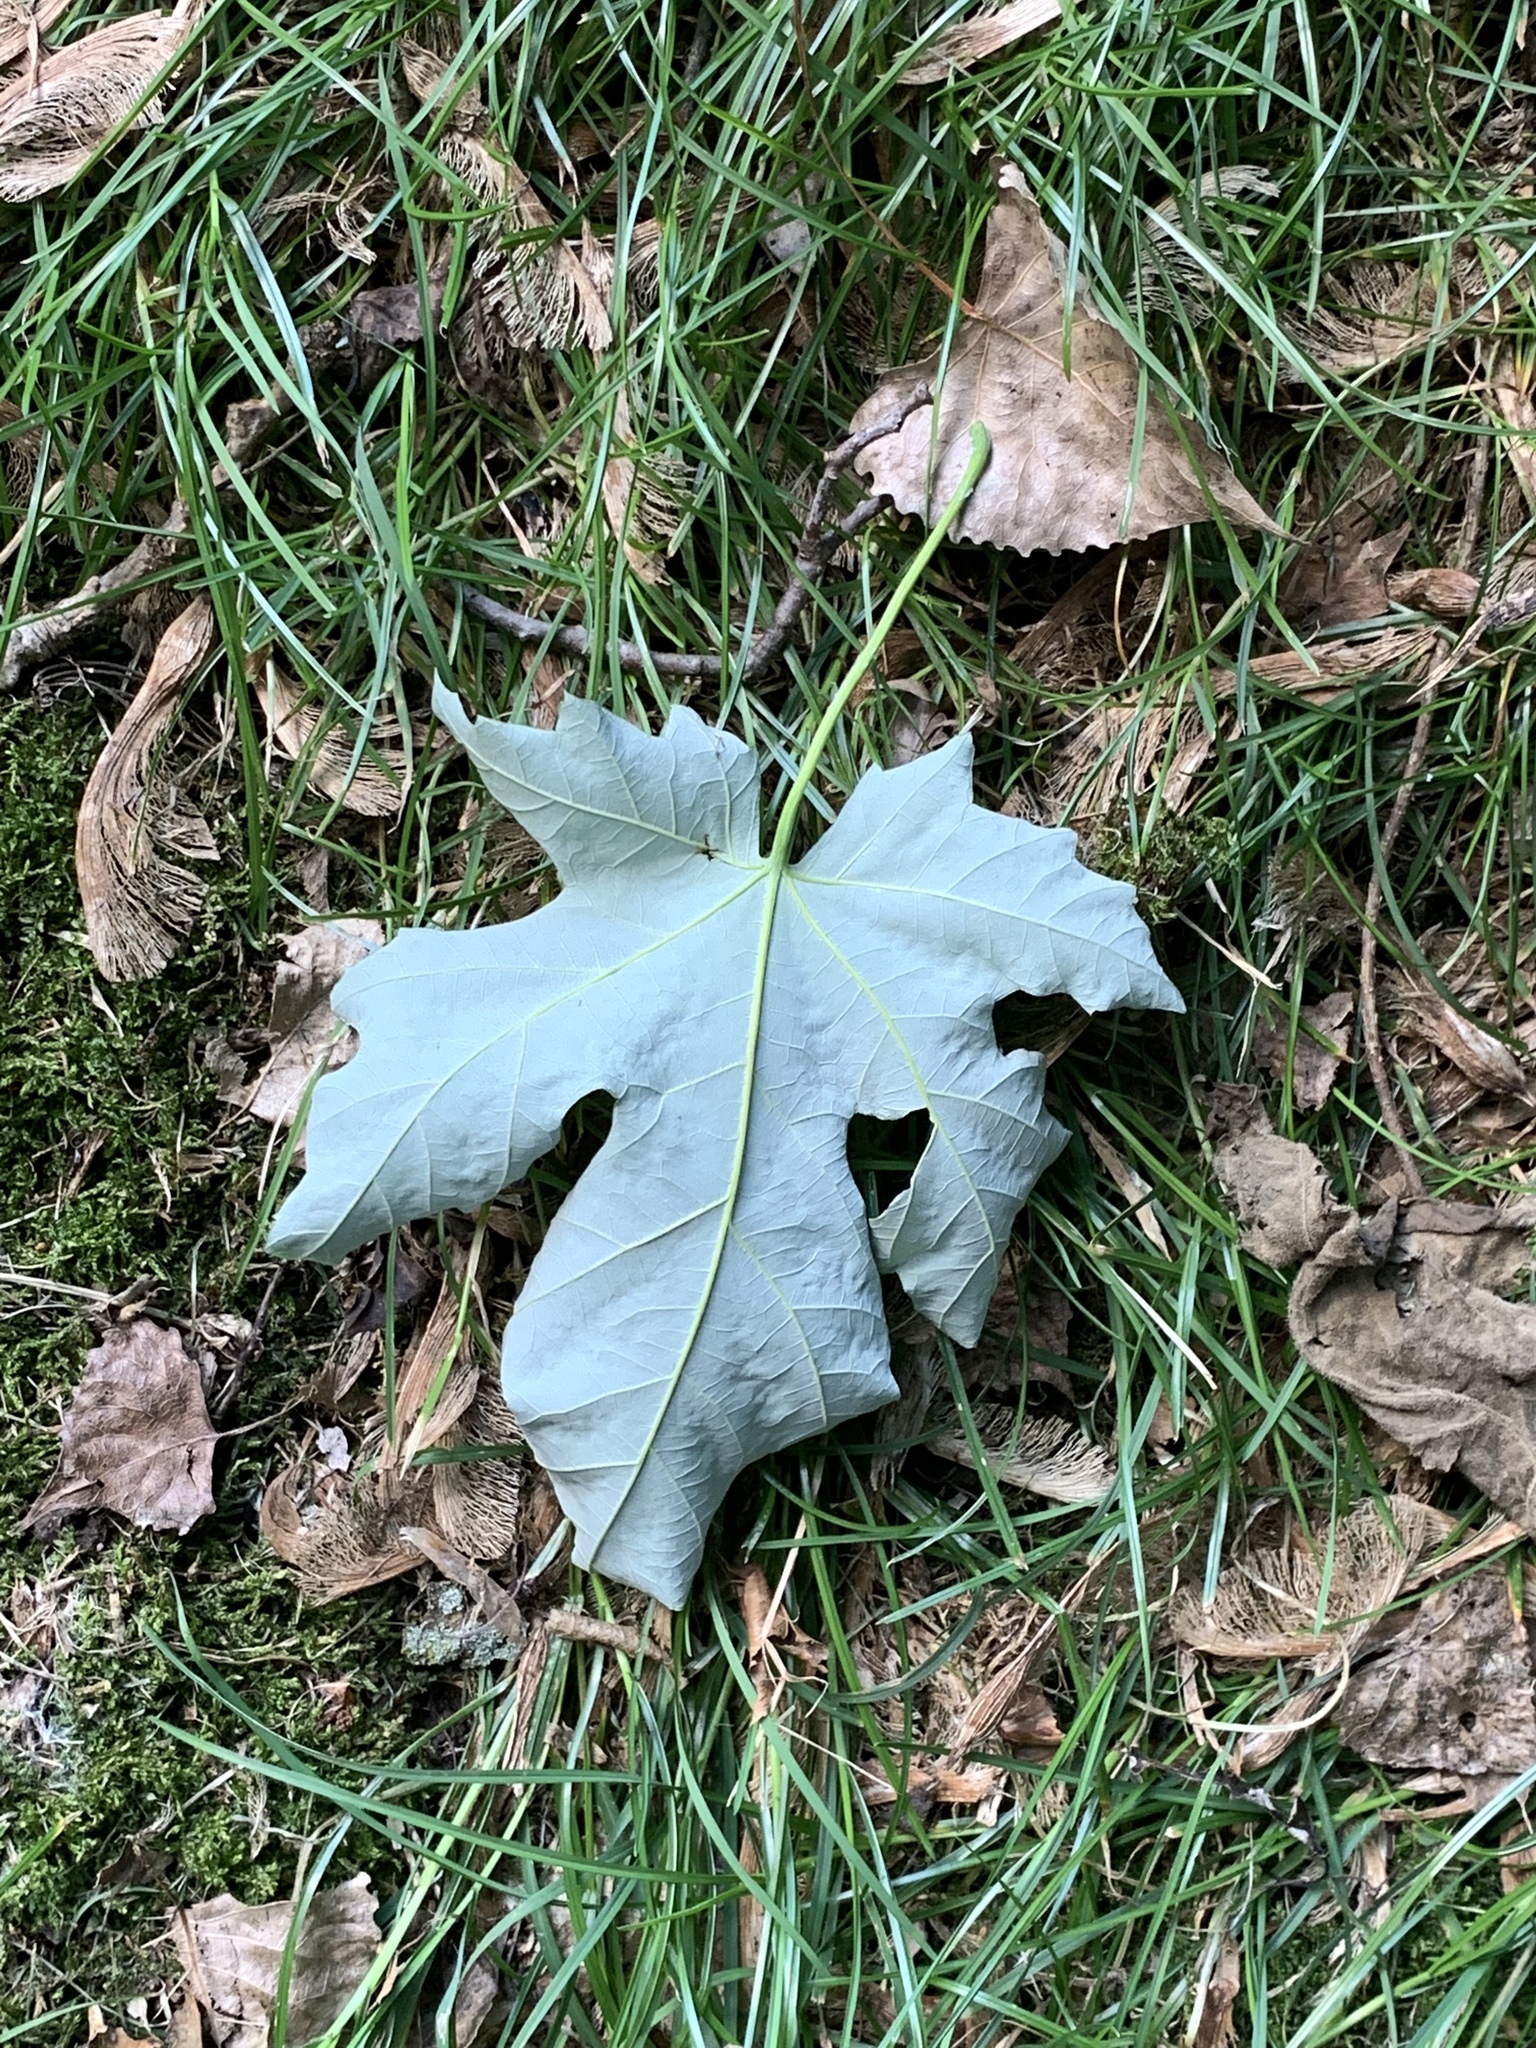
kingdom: Plantae
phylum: Tracheophyta
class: Magnoliopsida
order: Sapindales
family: Sapindaceae
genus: Acer
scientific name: Acer saccharinum
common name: Silver maple
